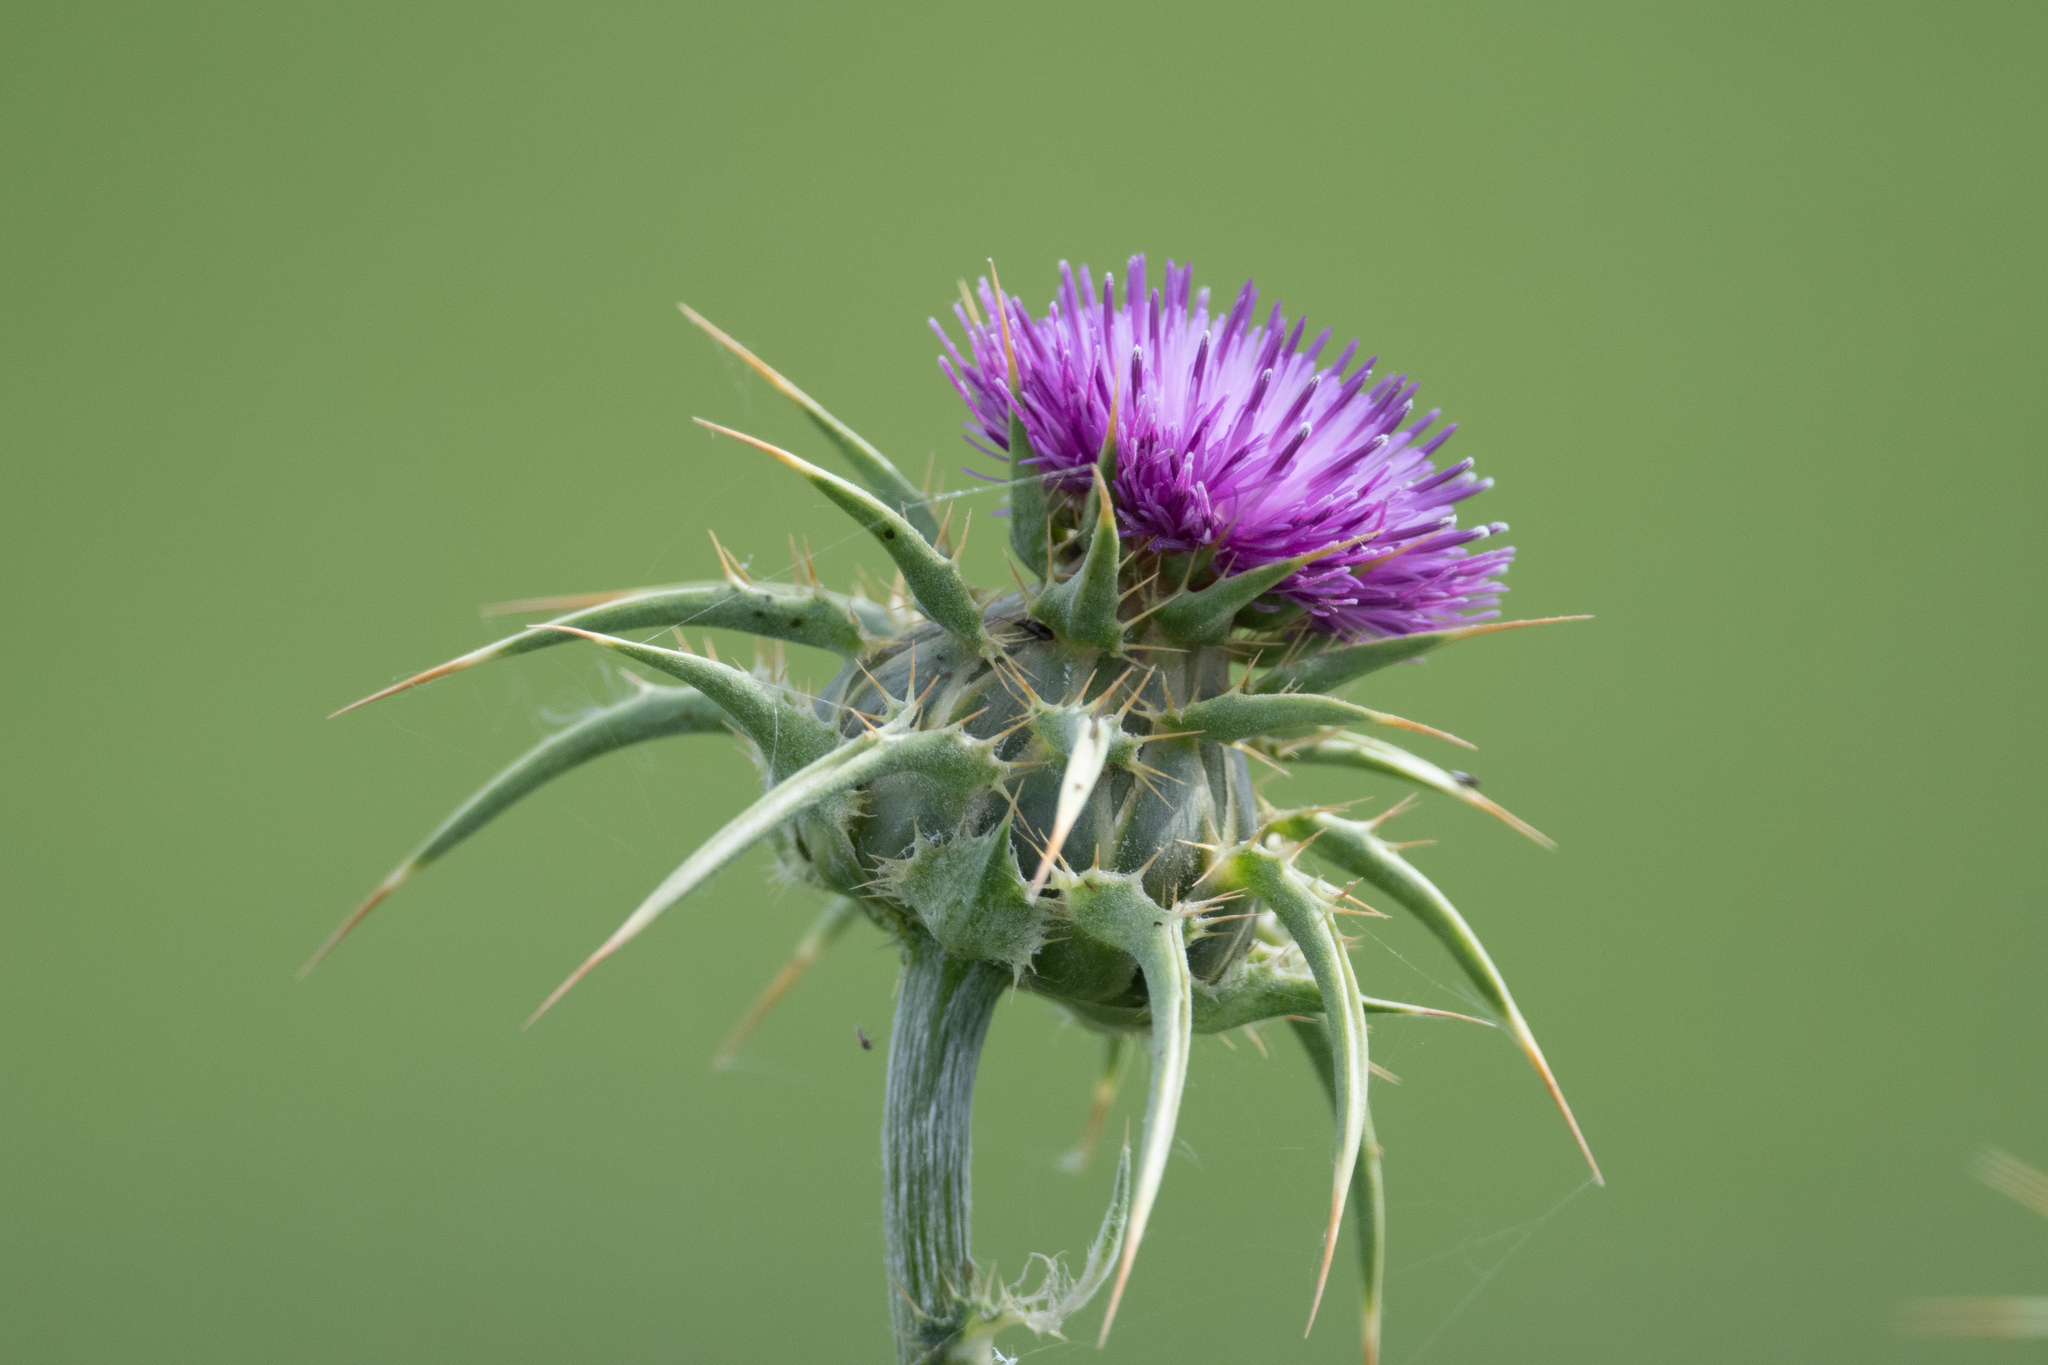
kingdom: Plantae
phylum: Tracheophyta
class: Magnoliopsida
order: Asterales
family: Asteraceae
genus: Silybum
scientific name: Silybum marianum
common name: Milk thistle
